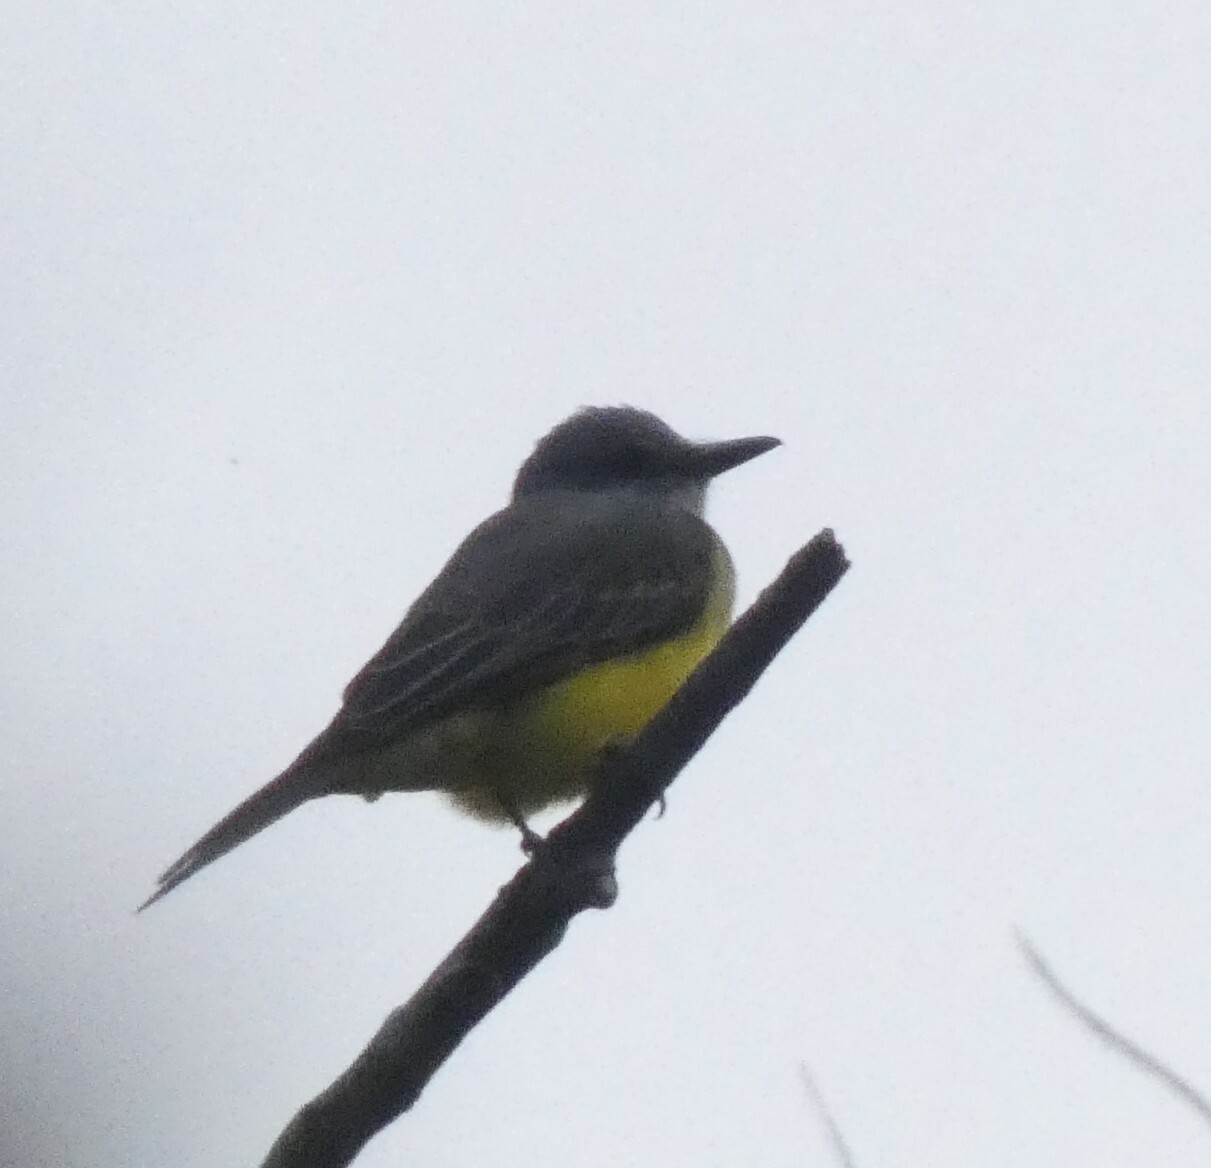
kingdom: Animalia
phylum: Chordata
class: Aves
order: Passeriformes
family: Tyrannidae
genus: Tyrannus
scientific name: Tyrannus melancholicus
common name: Tropical kingbird
